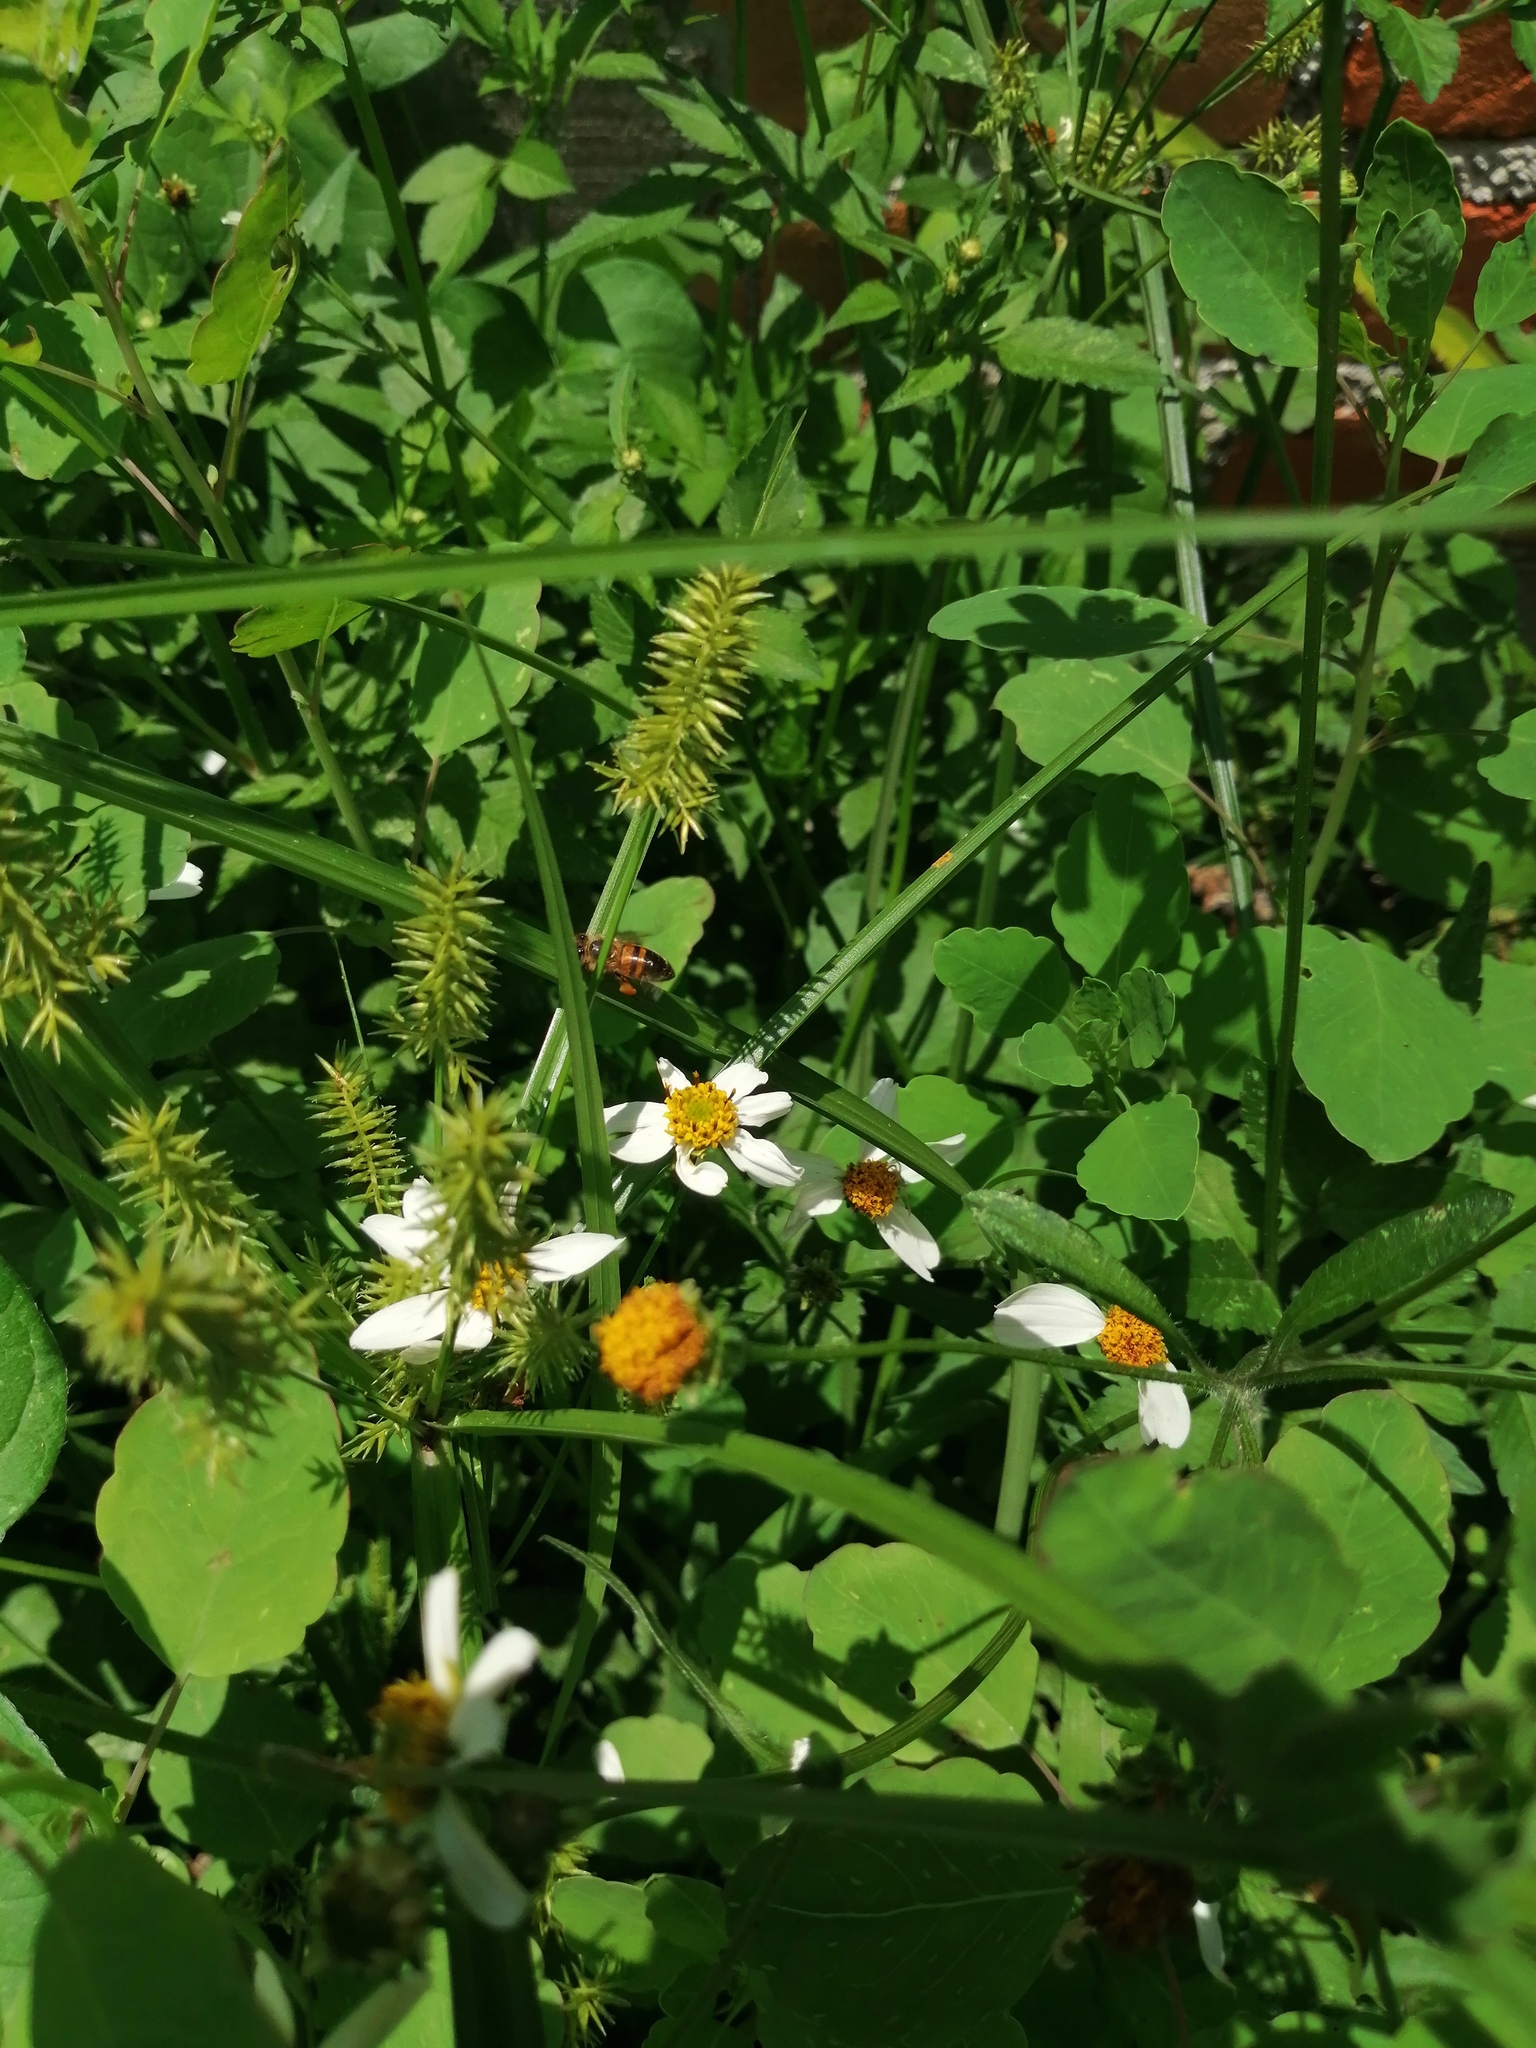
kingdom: Animalia
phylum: Arthropoda
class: Insecta
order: Hymenoptera
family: Apidae
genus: Apis
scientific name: Apis mellifera
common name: Honey bee
